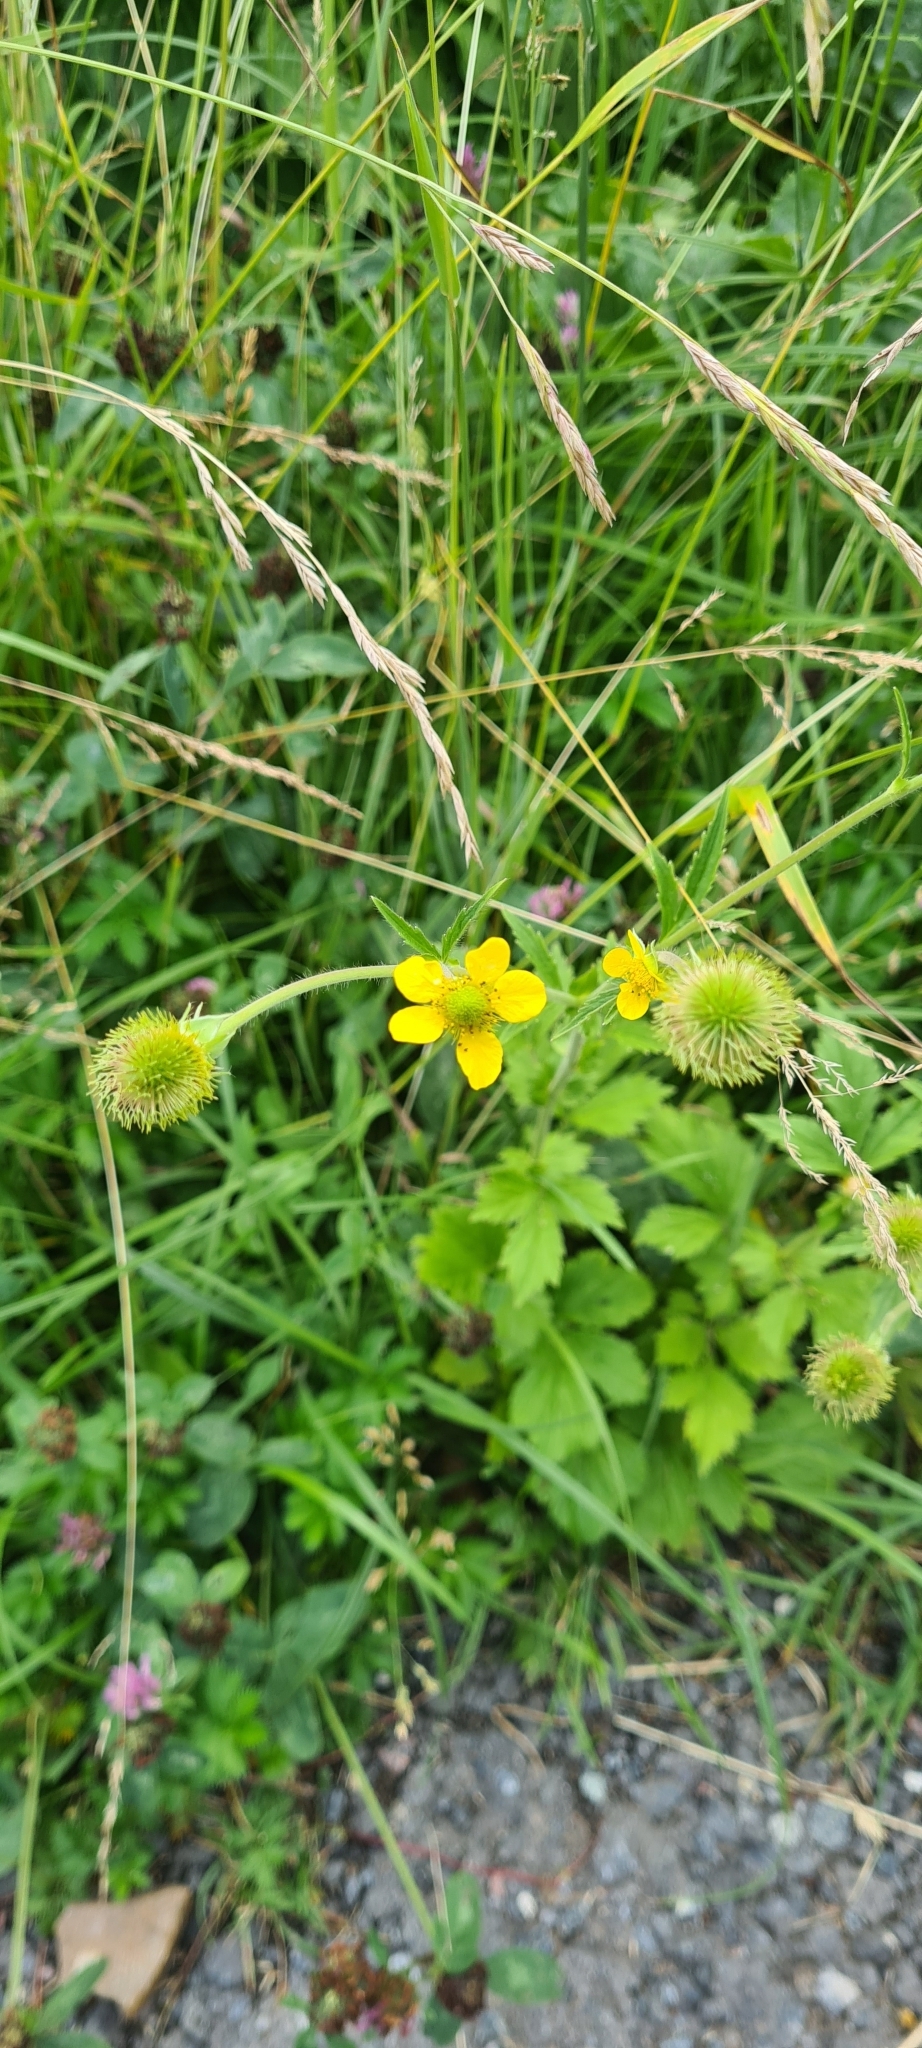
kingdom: Plantae
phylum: Tracheophyta
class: Magnoliopsida
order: Rosales
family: Rosaceae
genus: Geum
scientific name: Geum aleppicum
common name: Yellow avens
